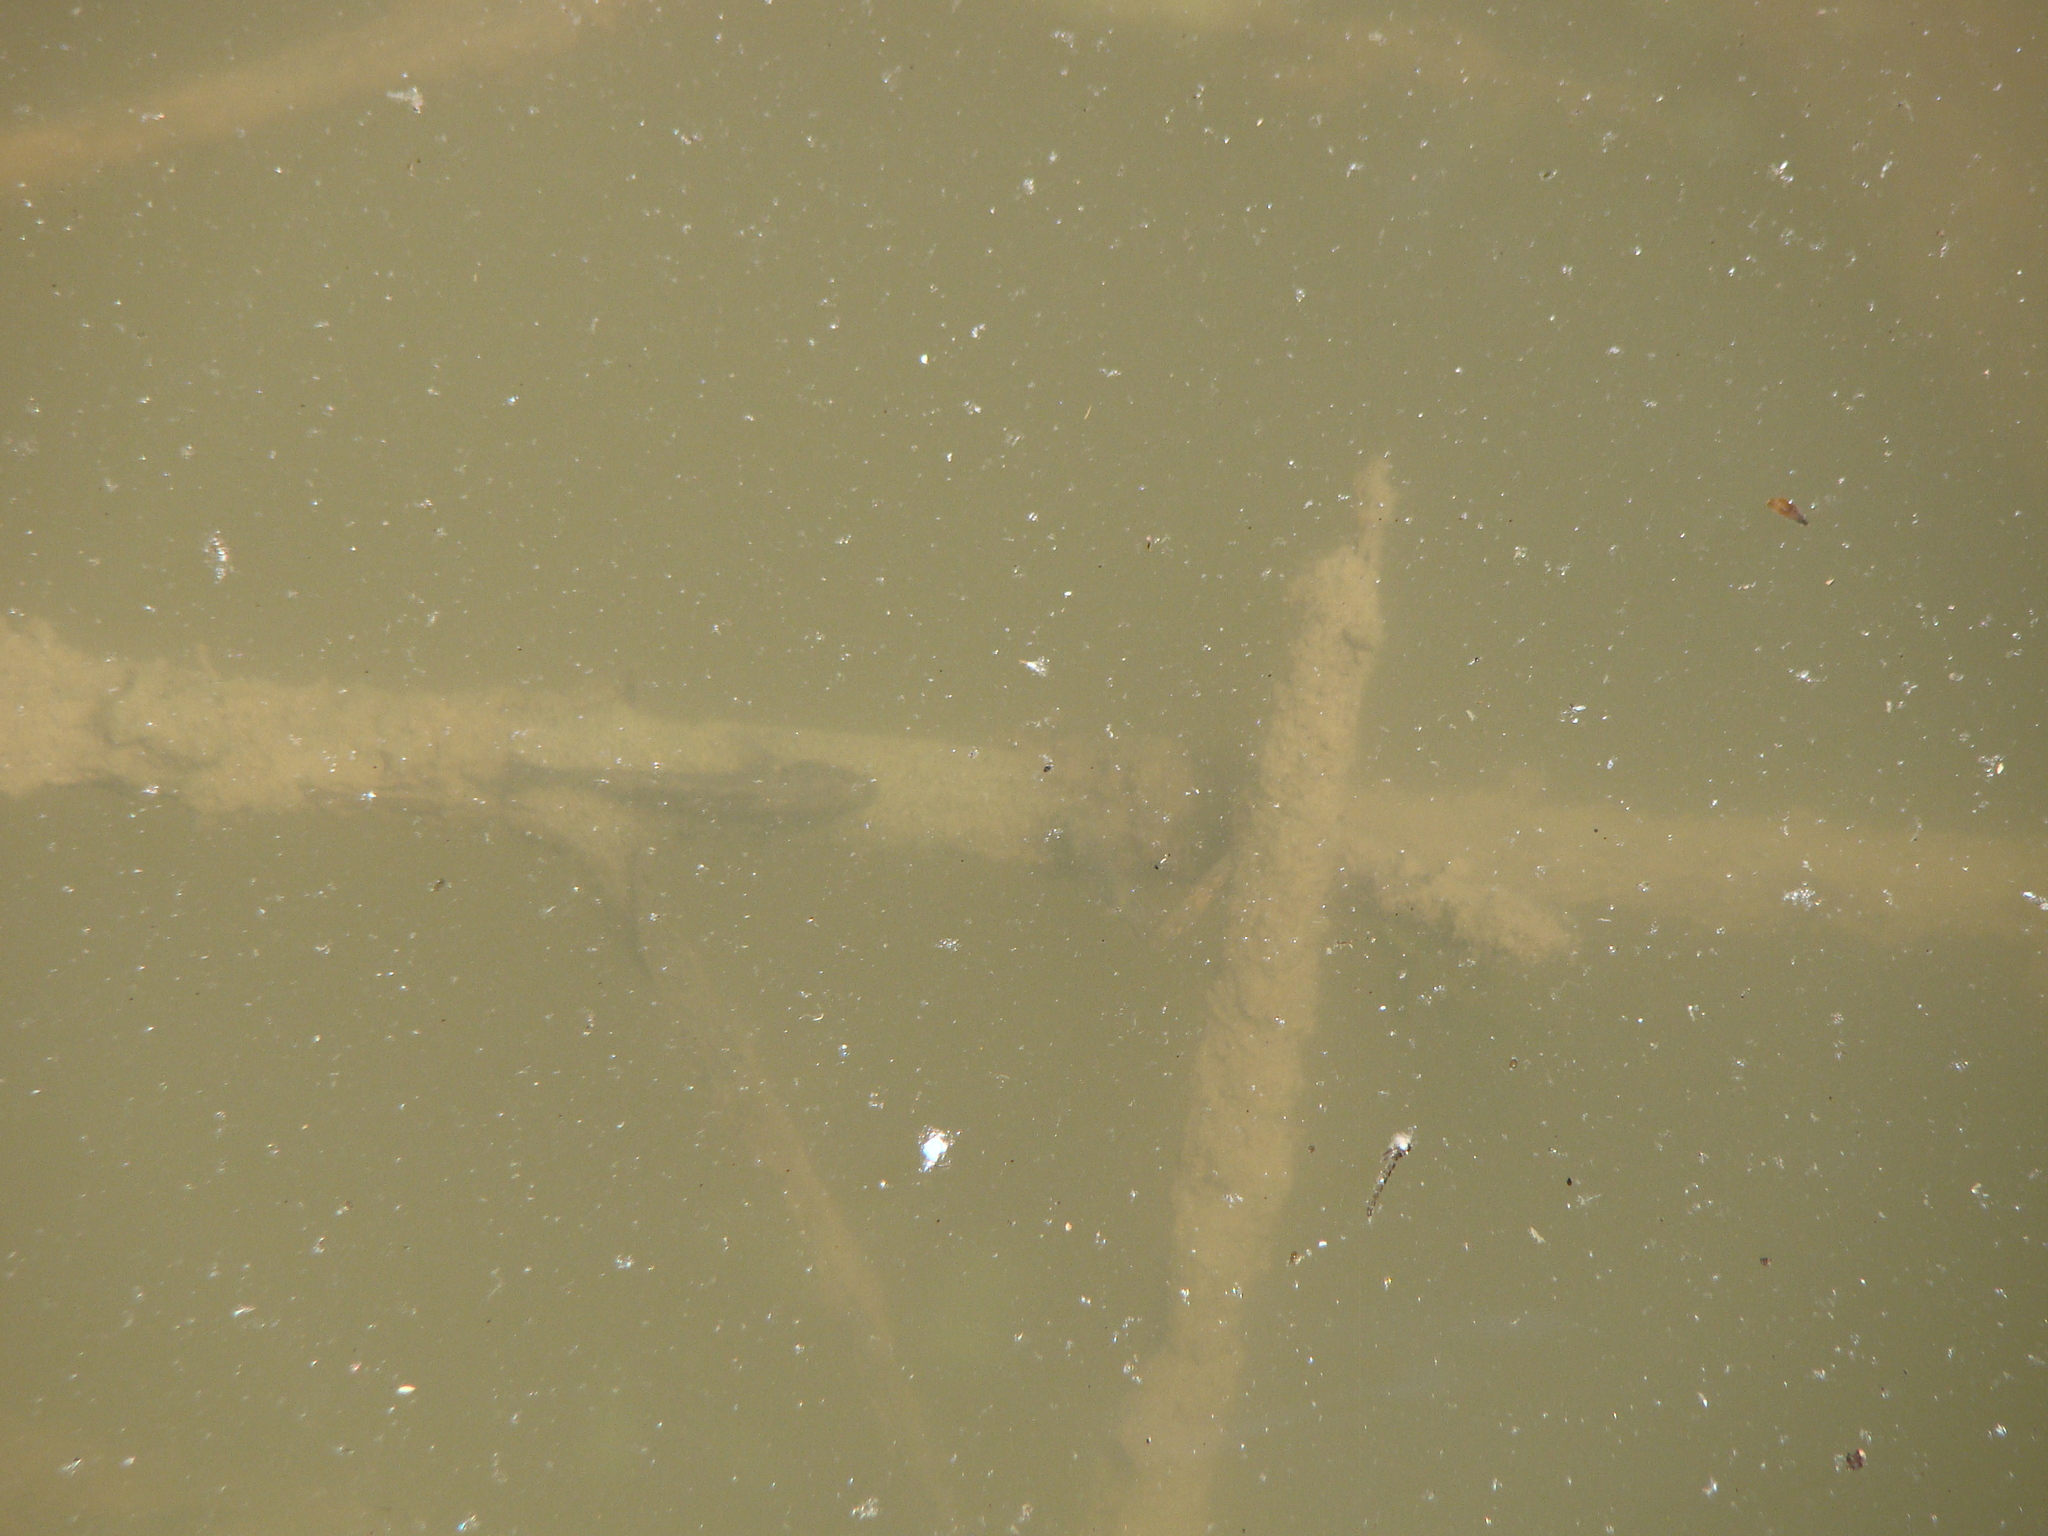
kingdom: Animalia
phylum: Chordata
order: Perciformes
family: Eleotridae
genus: Gobiomorphus
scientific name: Gobiomorphus
